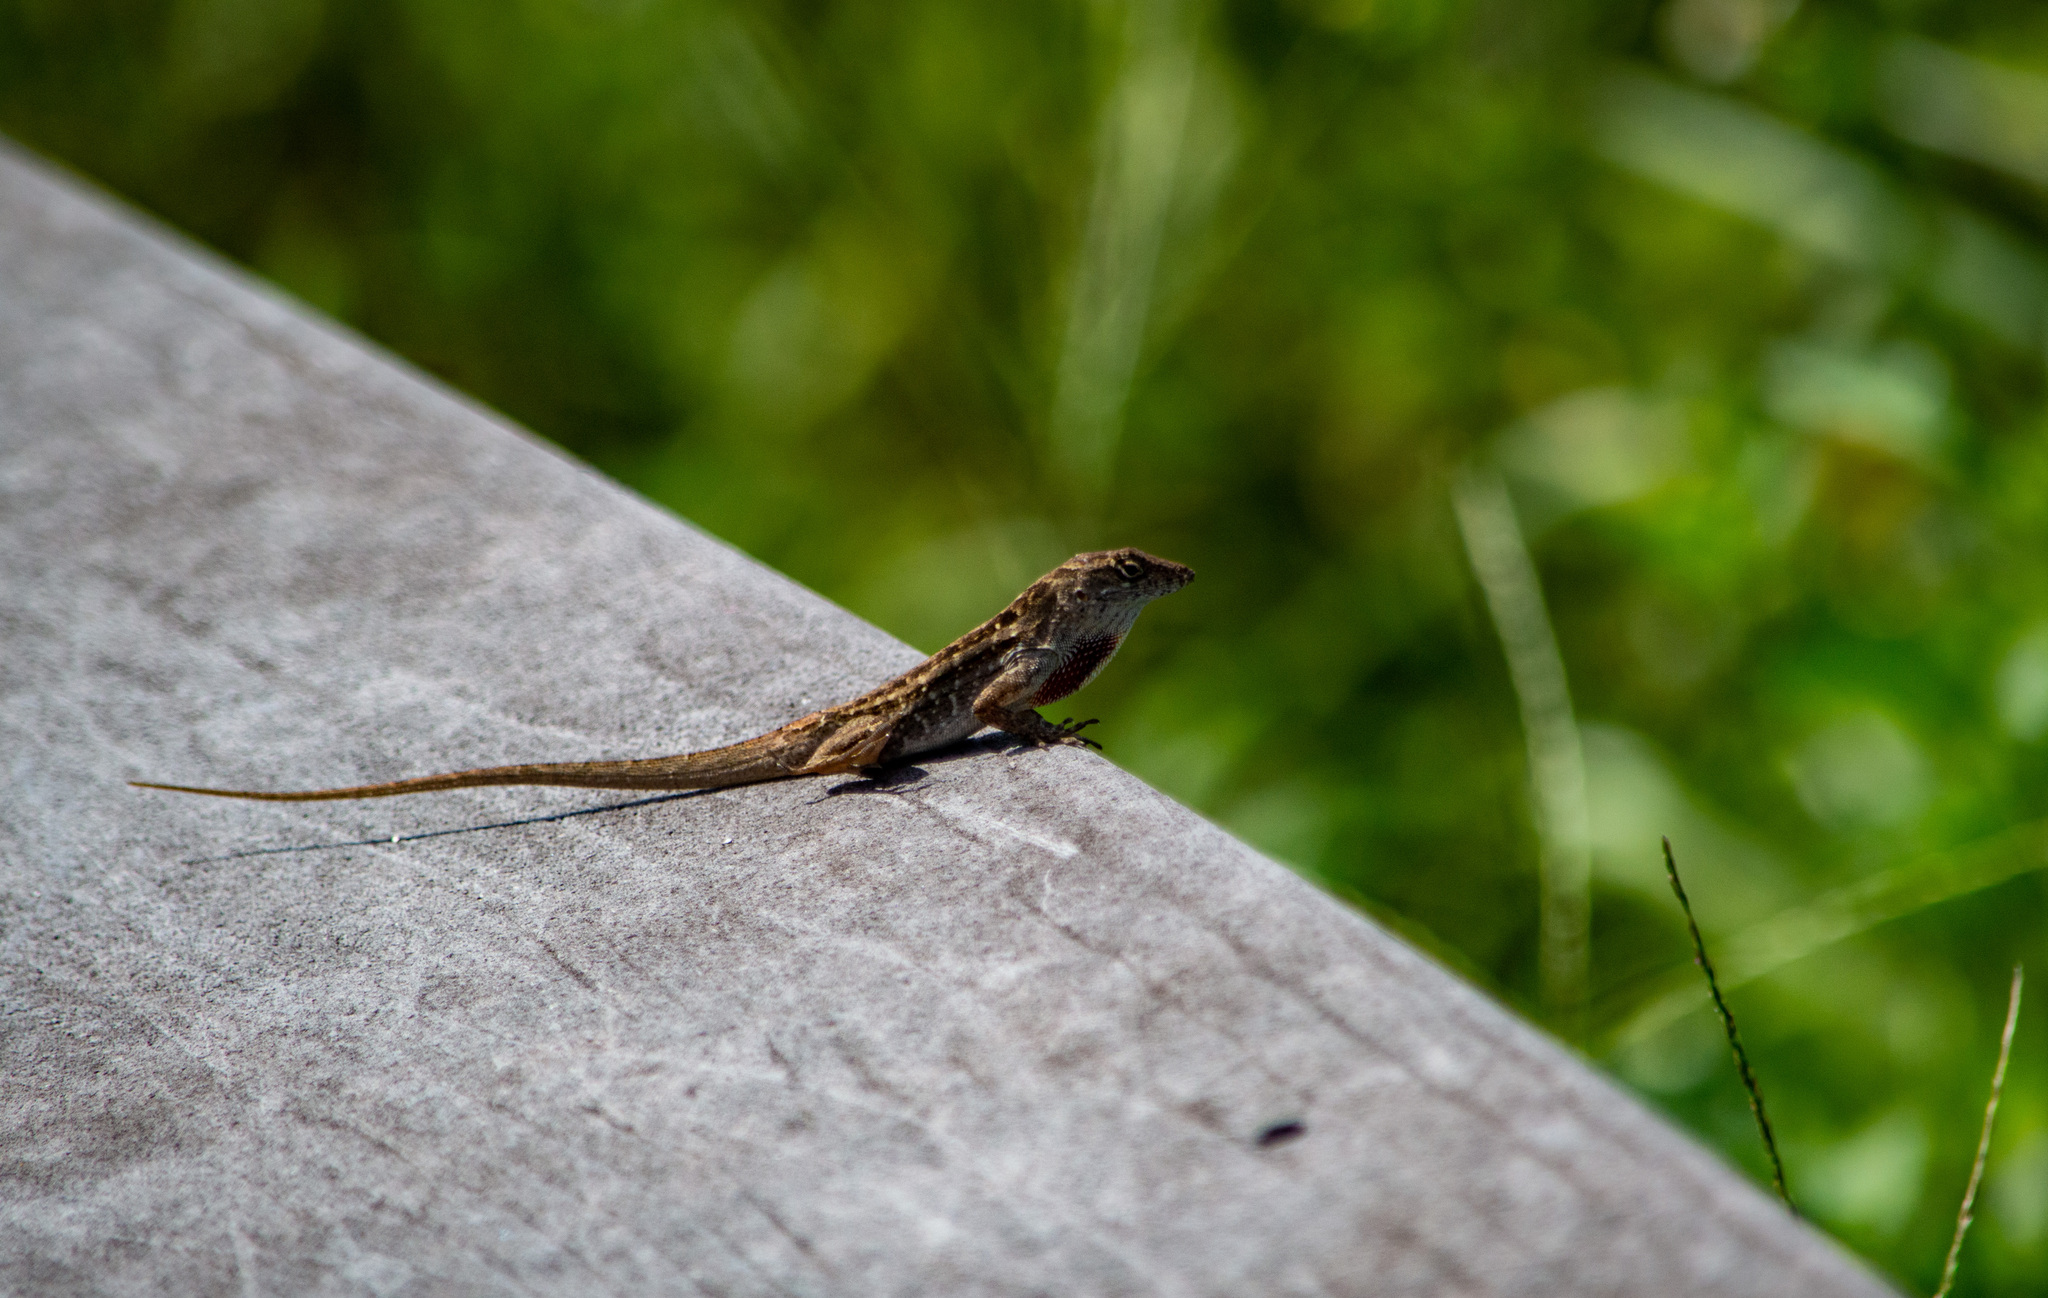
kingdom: Animalia
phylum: Chordata
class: Squamata
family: Dactyloidae
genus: Anolis
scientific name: Anolis sagrei
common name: Brown anole
